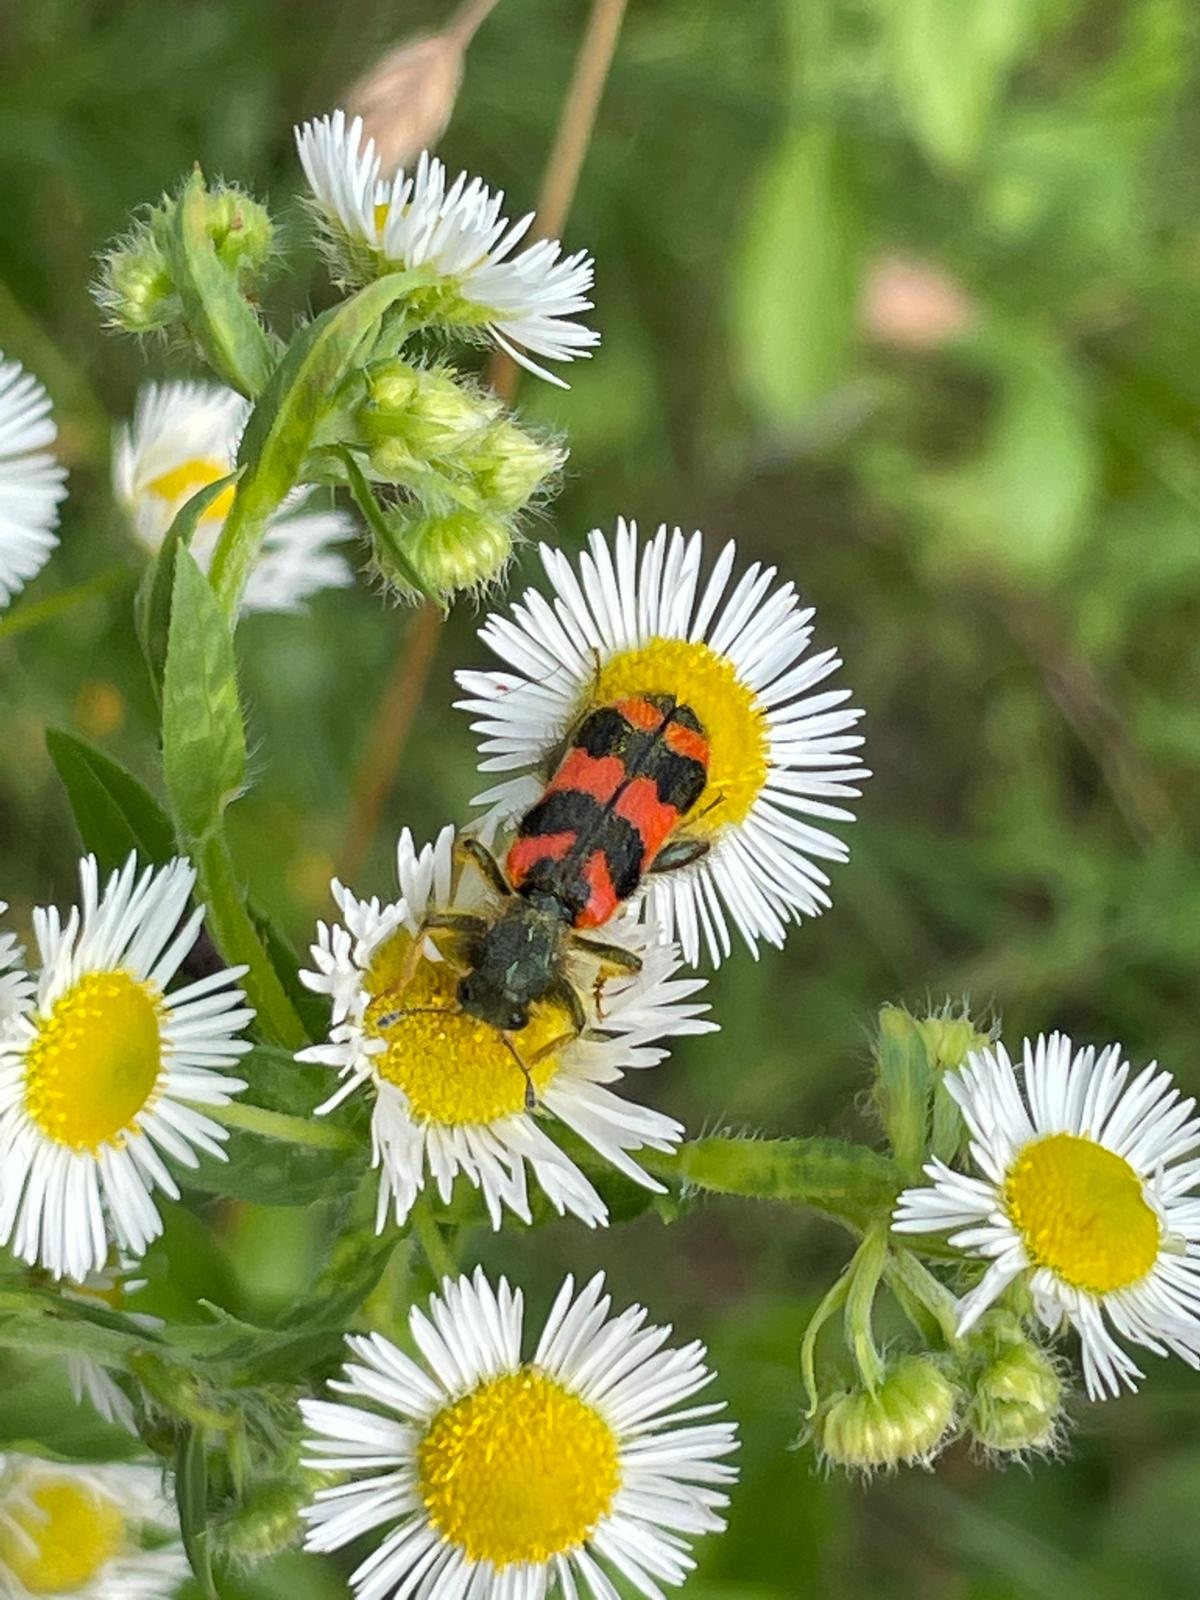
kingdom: Animalia
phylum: Arthropoda
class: Insecta
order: Coleoptera
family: Cleridae
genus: Trichodes
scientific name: Trichodes apiarius
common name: Bee-eating beetle
